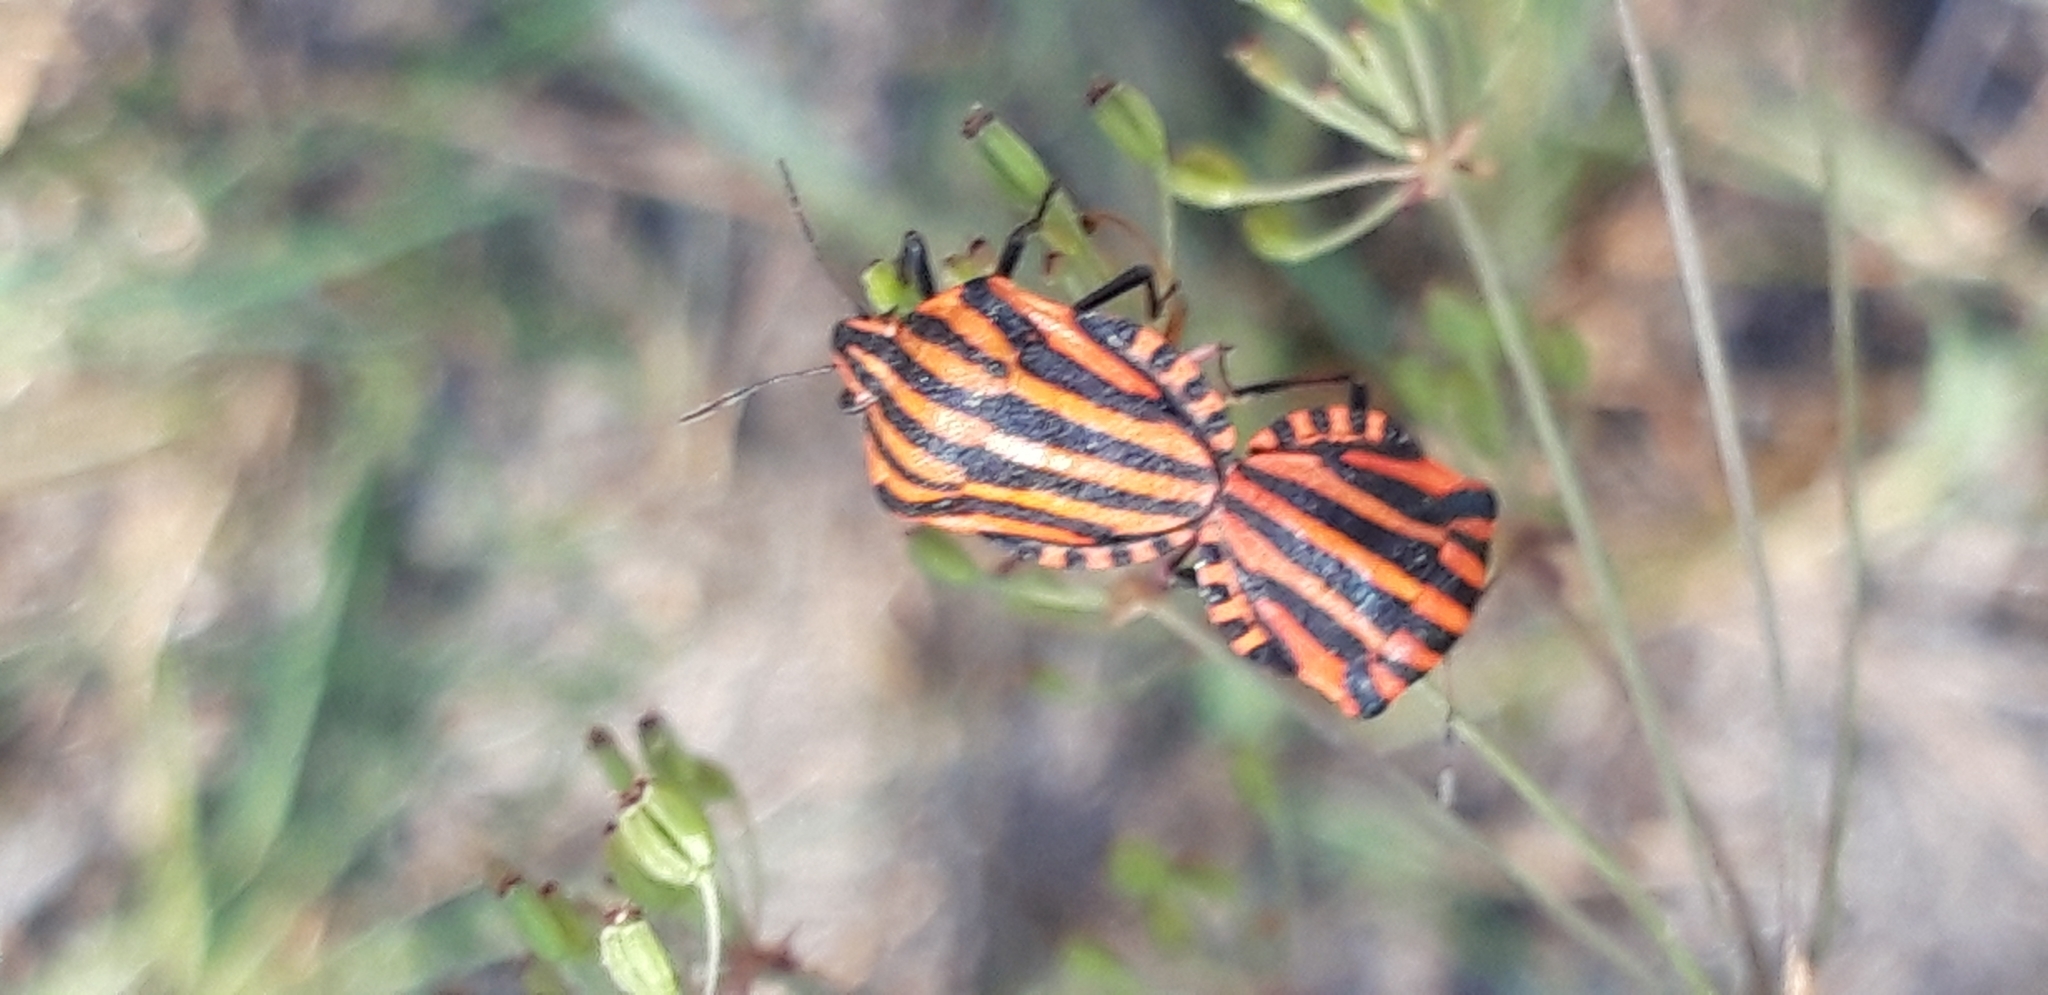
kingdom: Animalia
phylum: Arthropoda
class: Insecta
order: Hemiptera
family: Pentatomidae
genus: Graphosoma
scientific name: Graphosoma italicum
